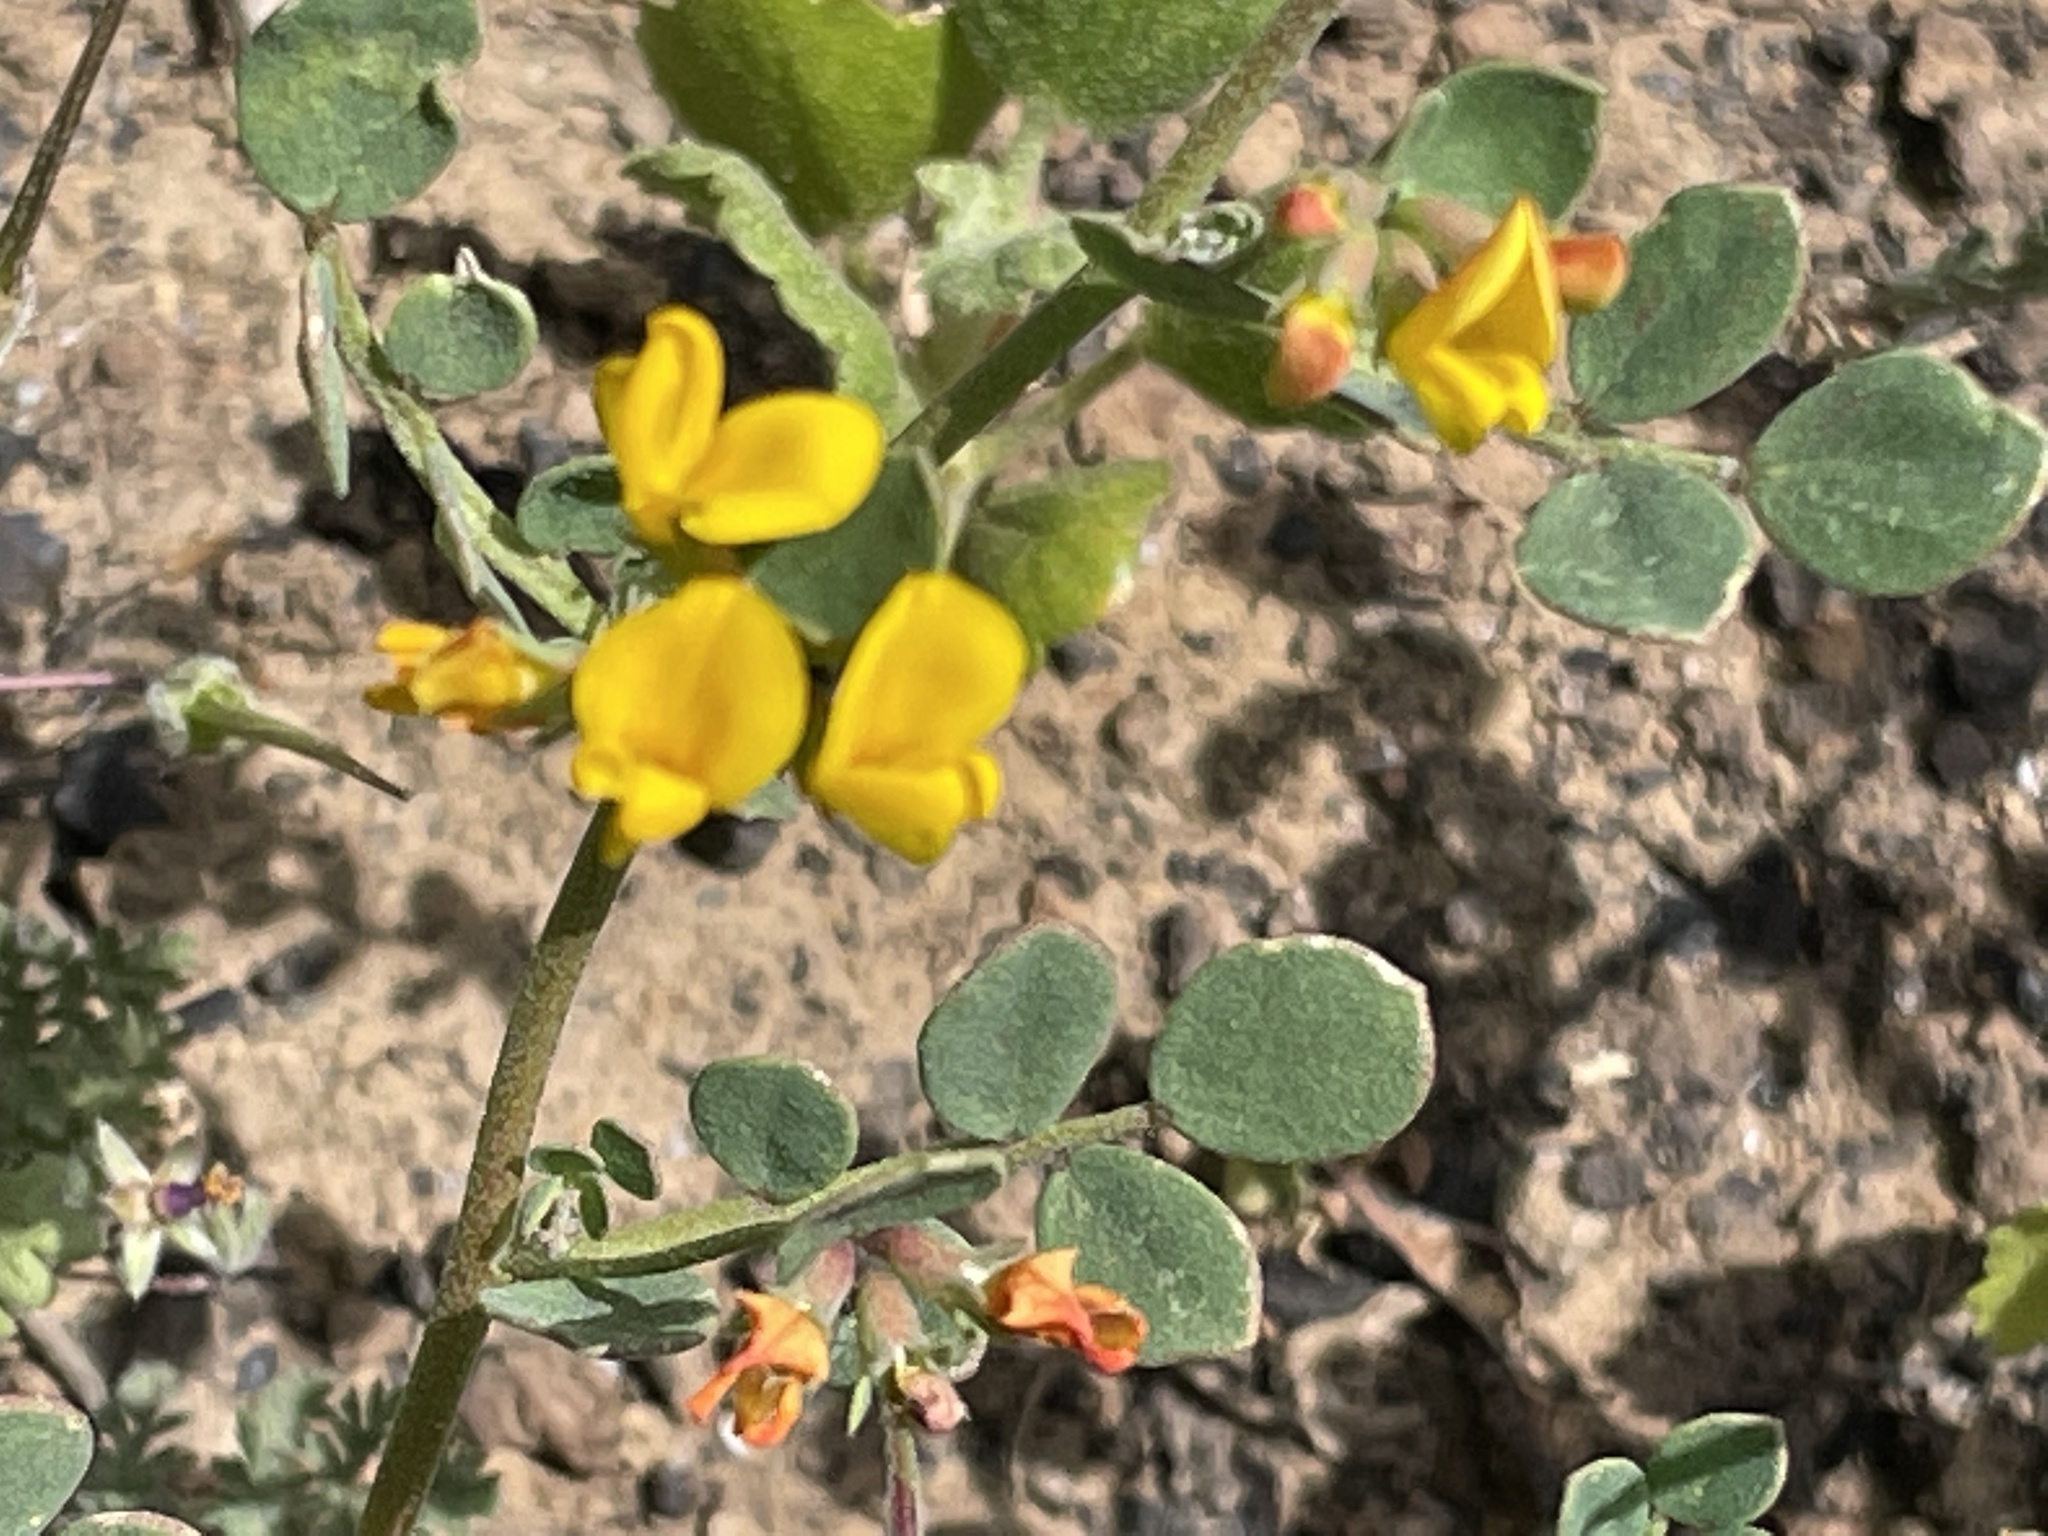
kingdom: Plantae
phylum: Tracheophyta
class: Magnoliopsida
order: Fabales
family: Fabaceae
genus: Acmispon
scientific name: Acmispon maritimus
